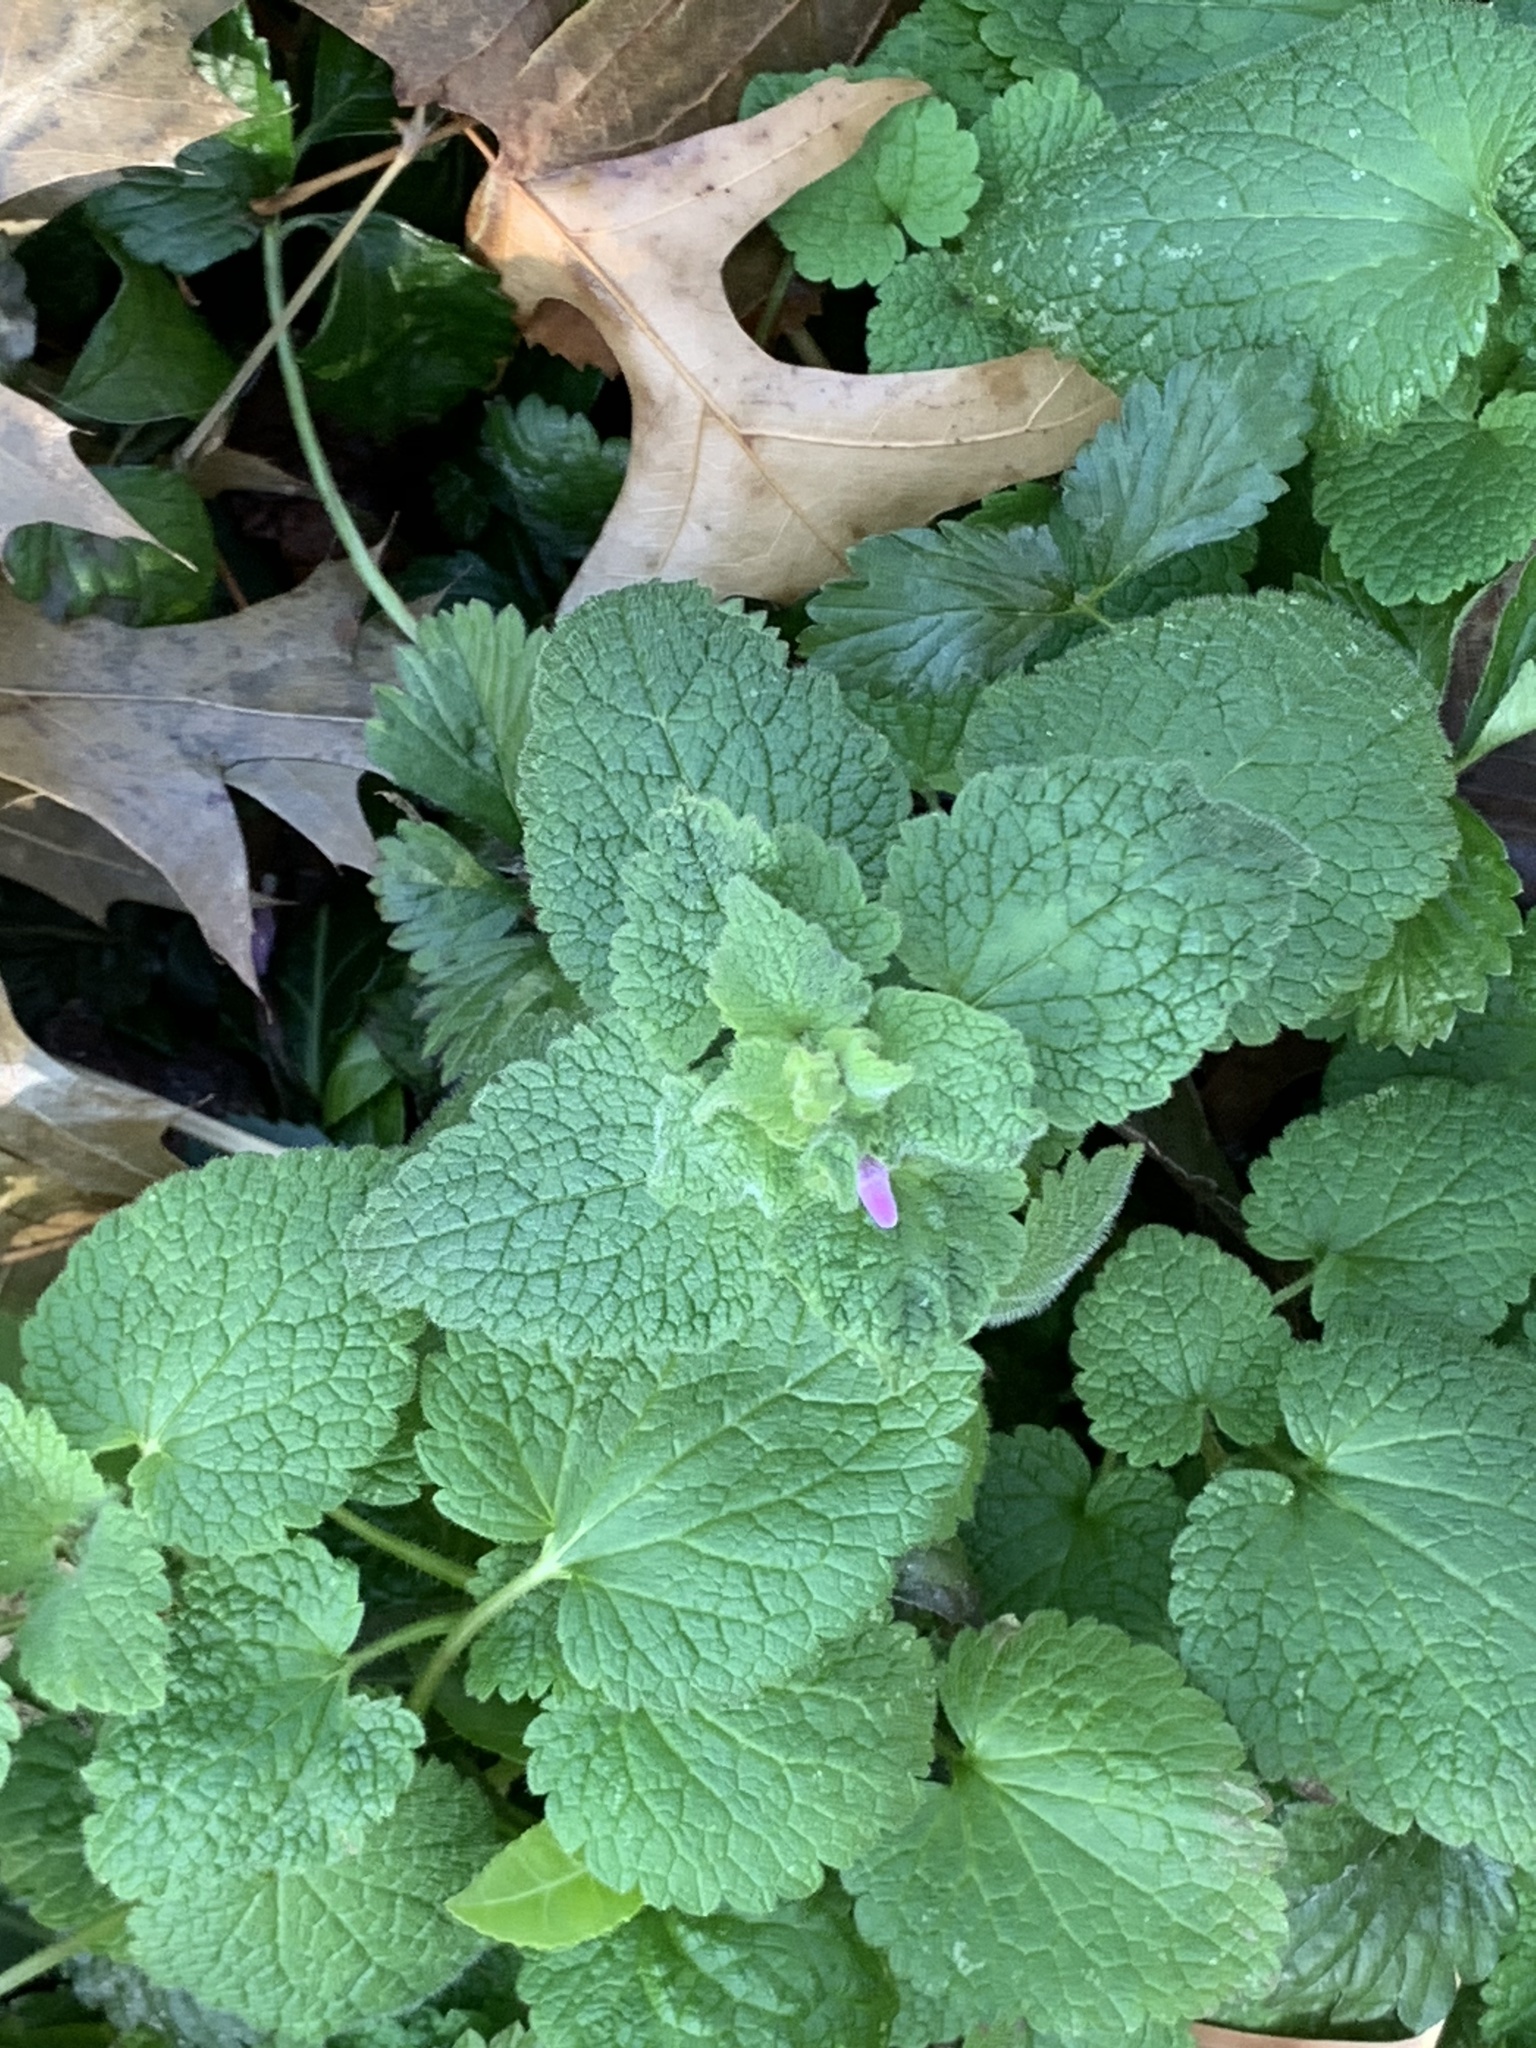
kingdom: Plantae
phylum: Tracheophyta
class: Magnoliopsida
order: Lamiales
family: Lamiaceae
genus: Lamium
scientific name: Lamium purpureum
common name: Red dead-nettle
